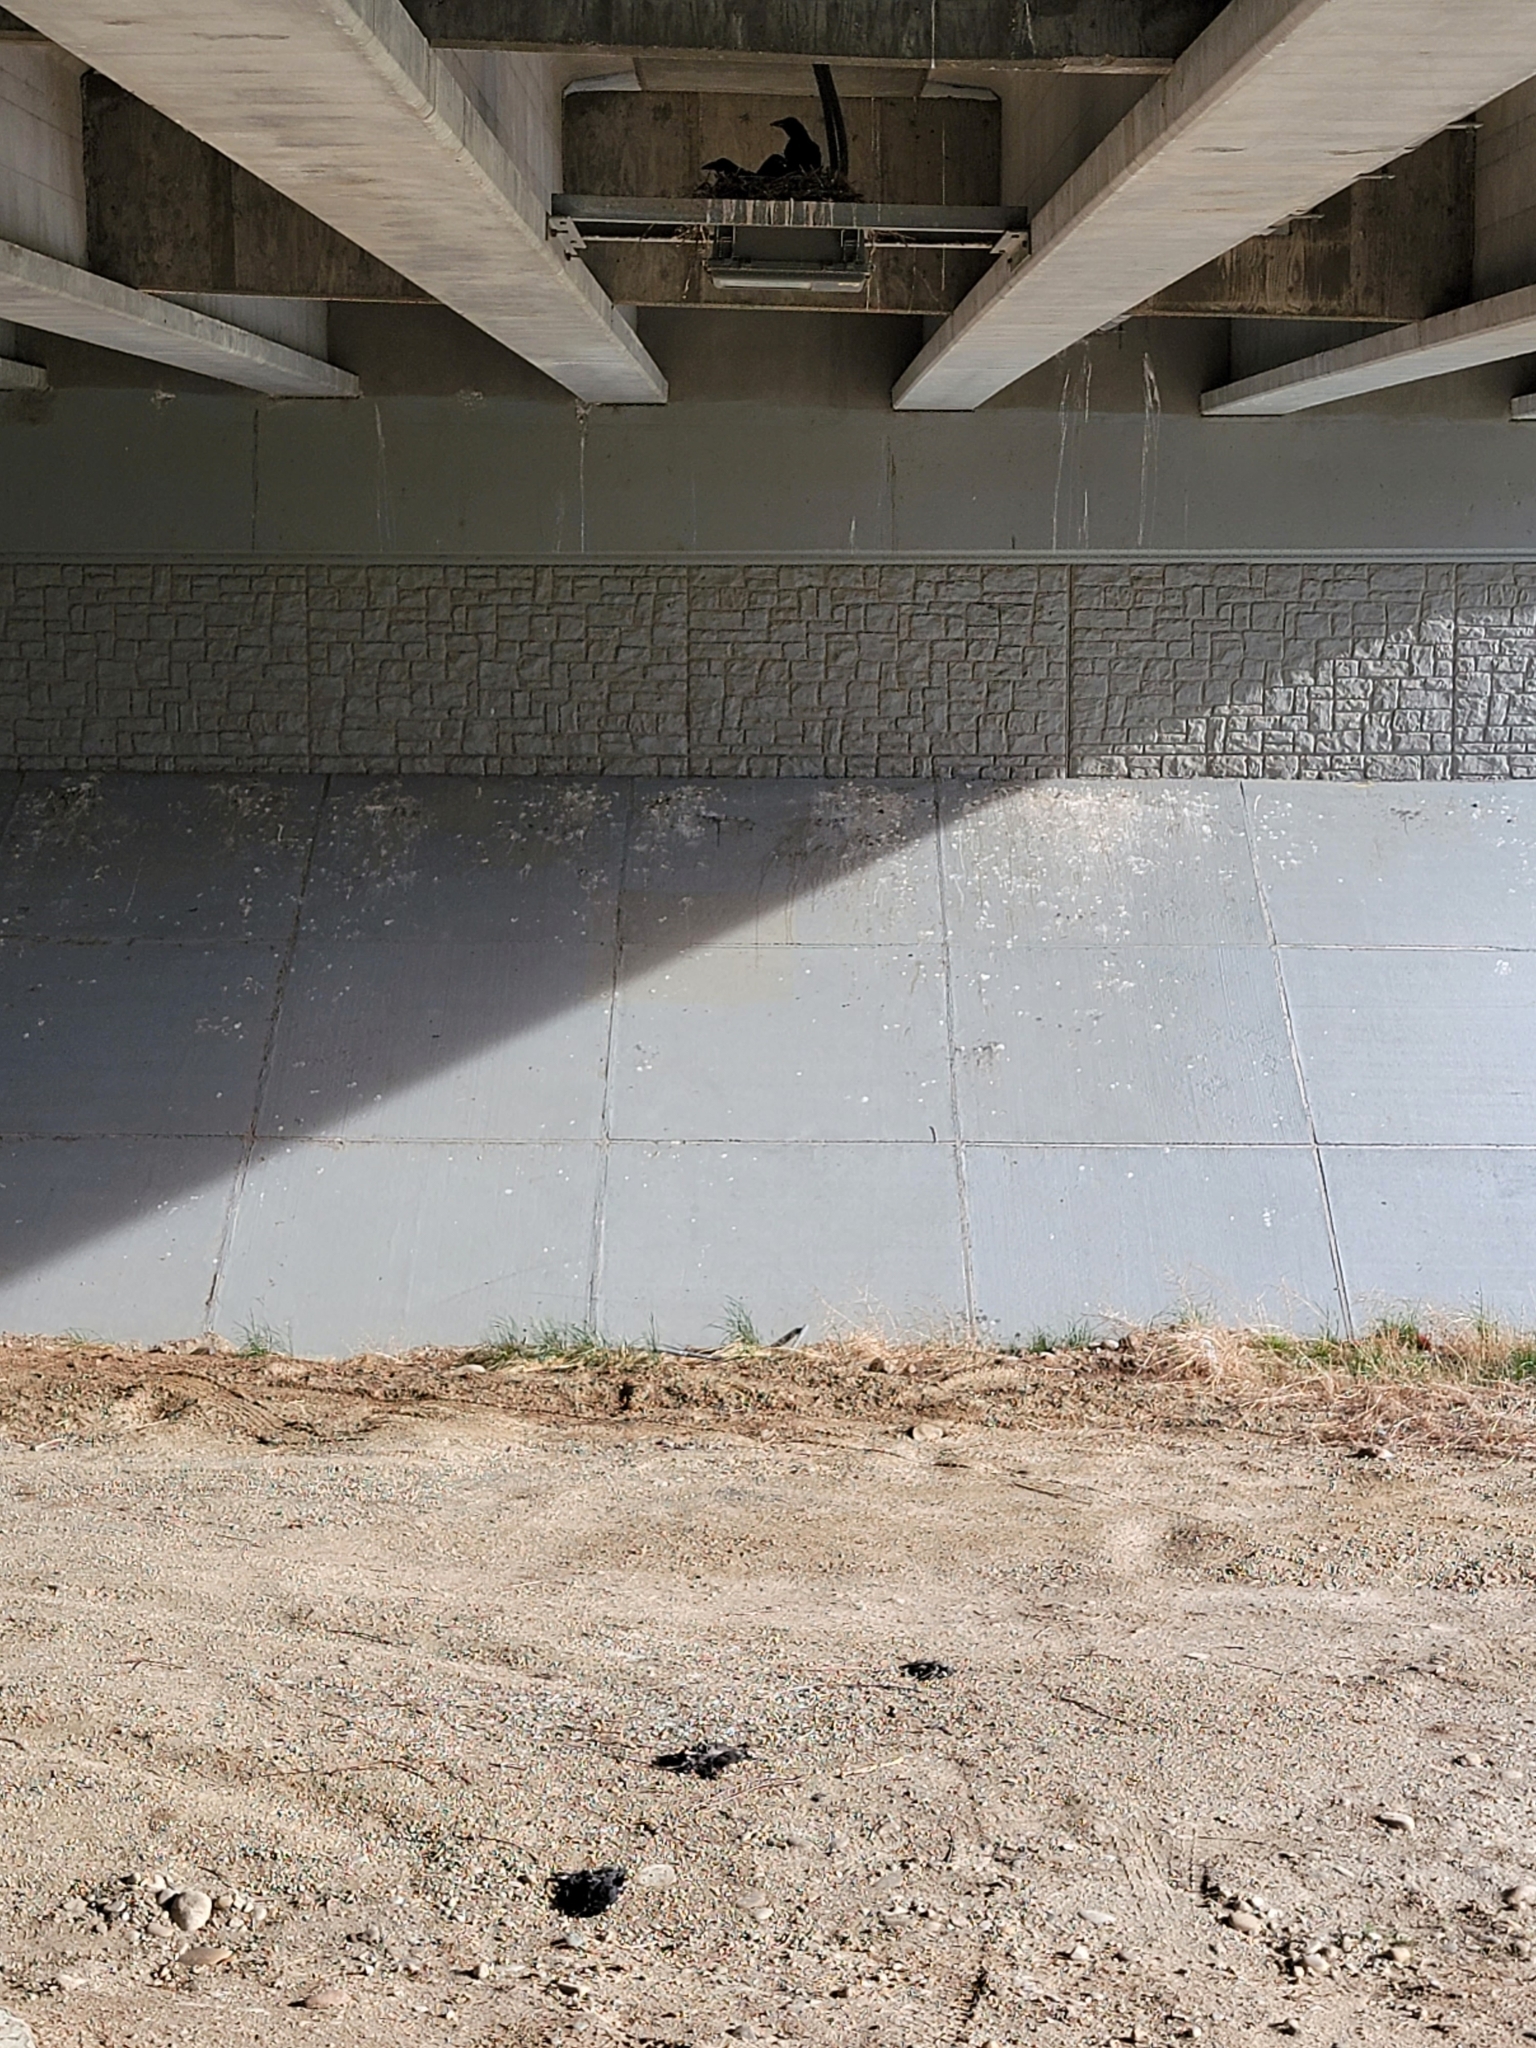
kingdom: Animalia
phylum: Chordata
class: Aves
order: Passeriformes
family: Corvidae
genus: Corvus
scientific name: Corvus corax
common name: Common raven
